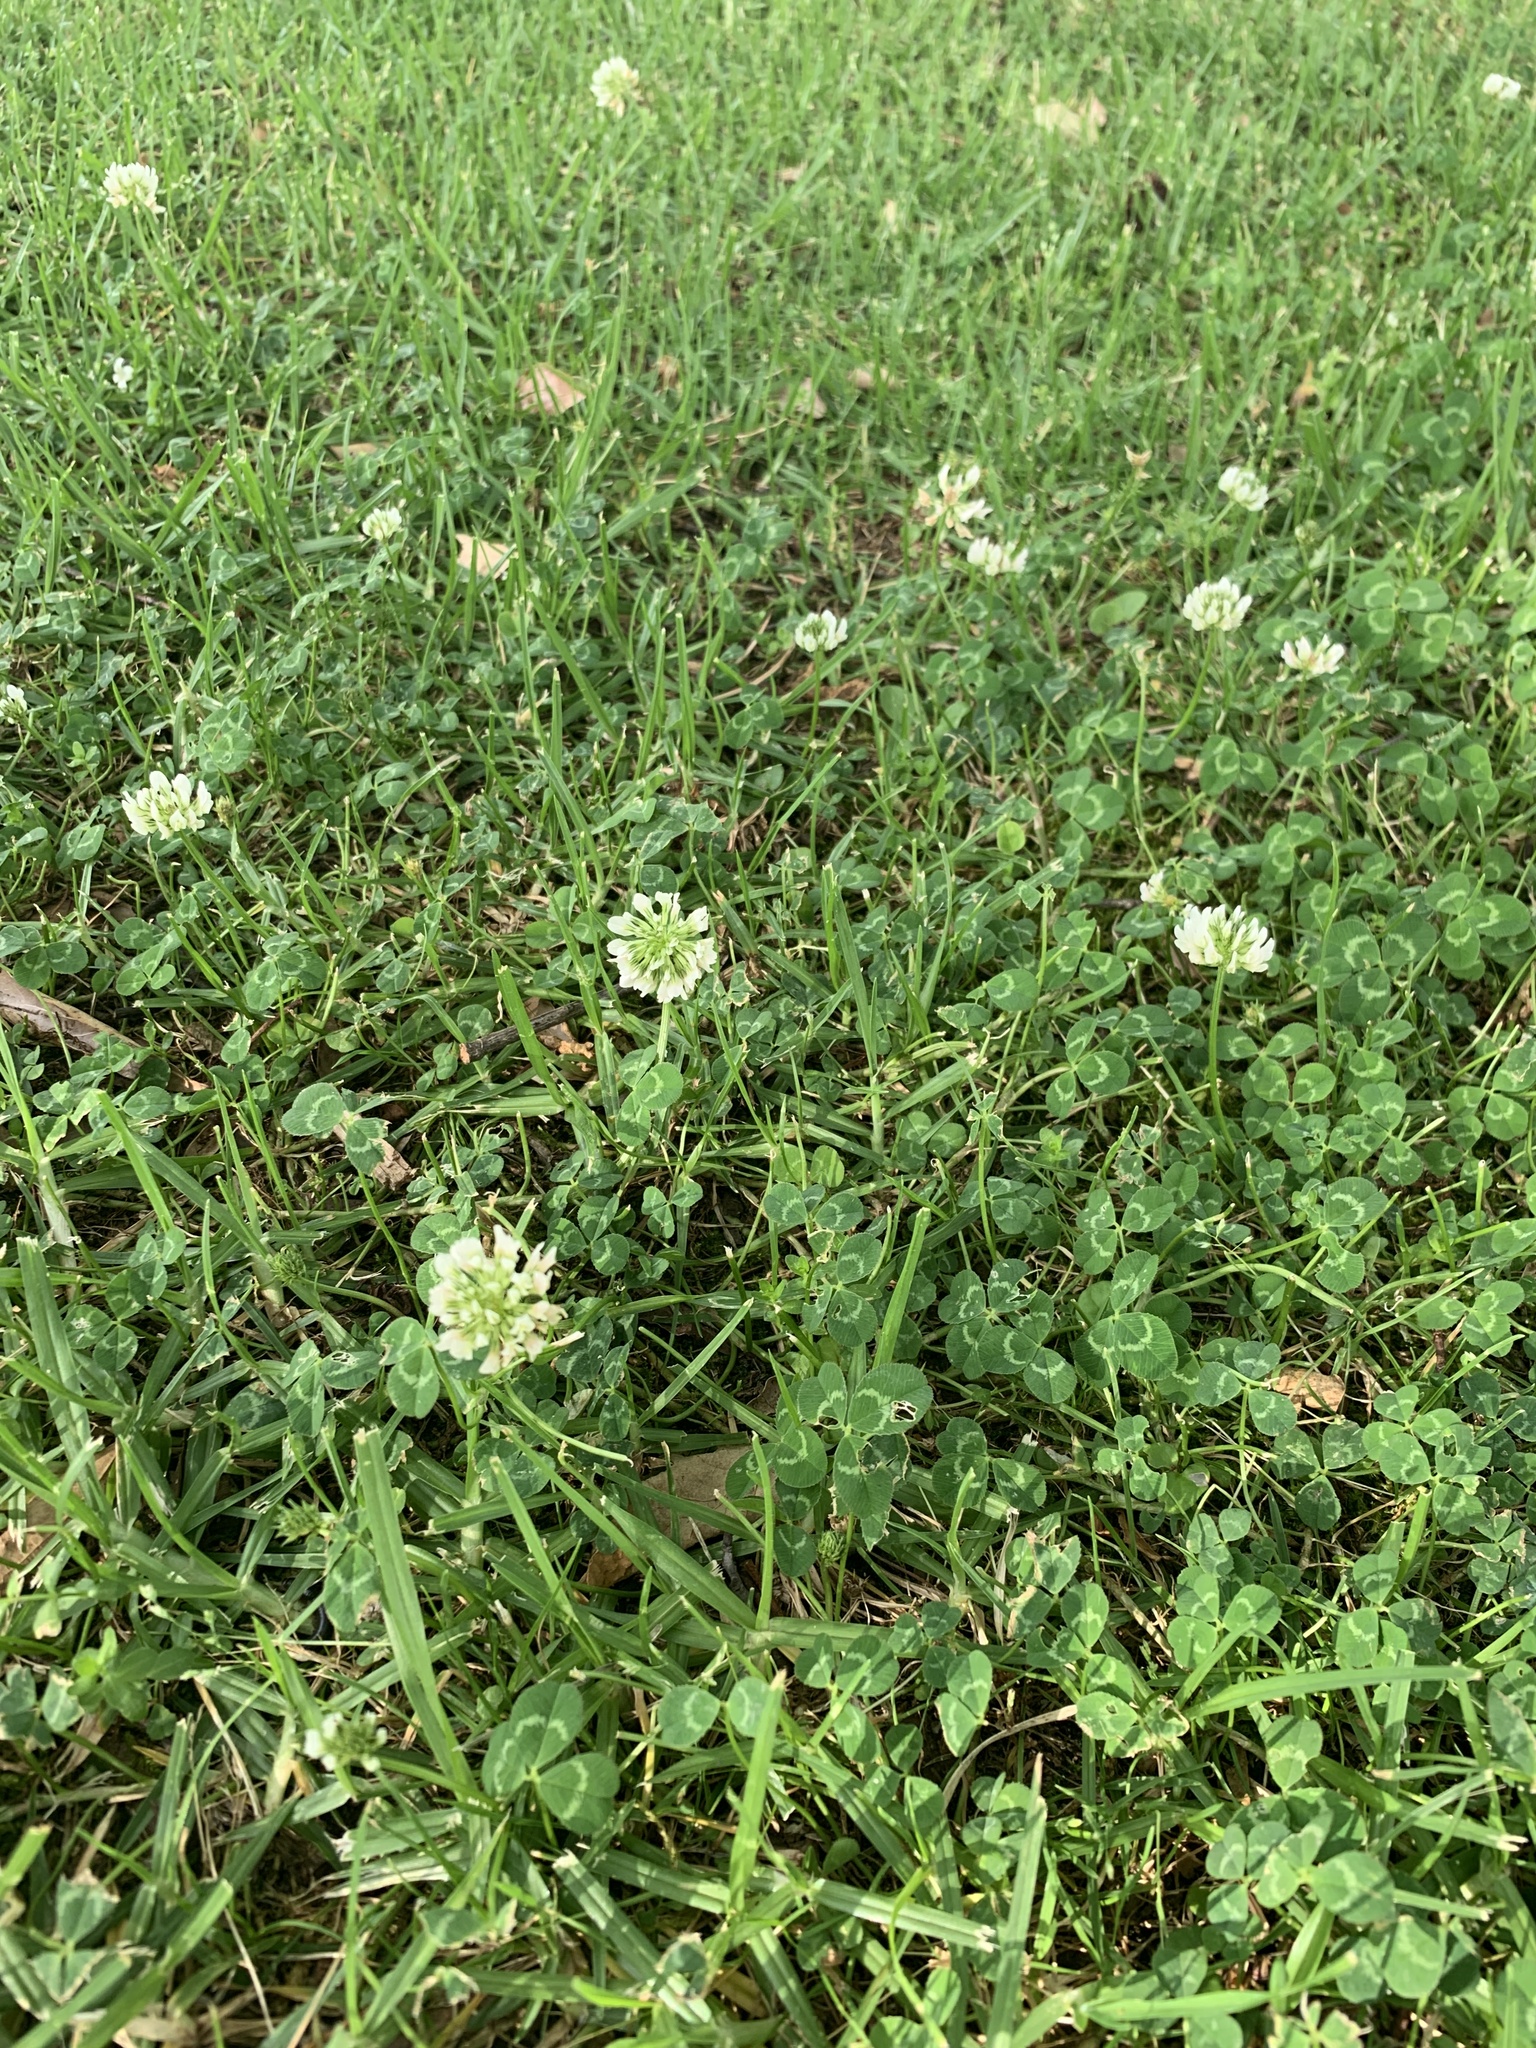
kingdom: Plantae
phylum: Tracheophyta
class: Magnoliopsida
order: Fabales
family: Fabaceae
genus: Trifolium
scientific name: Trifolium repens
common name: White clover
